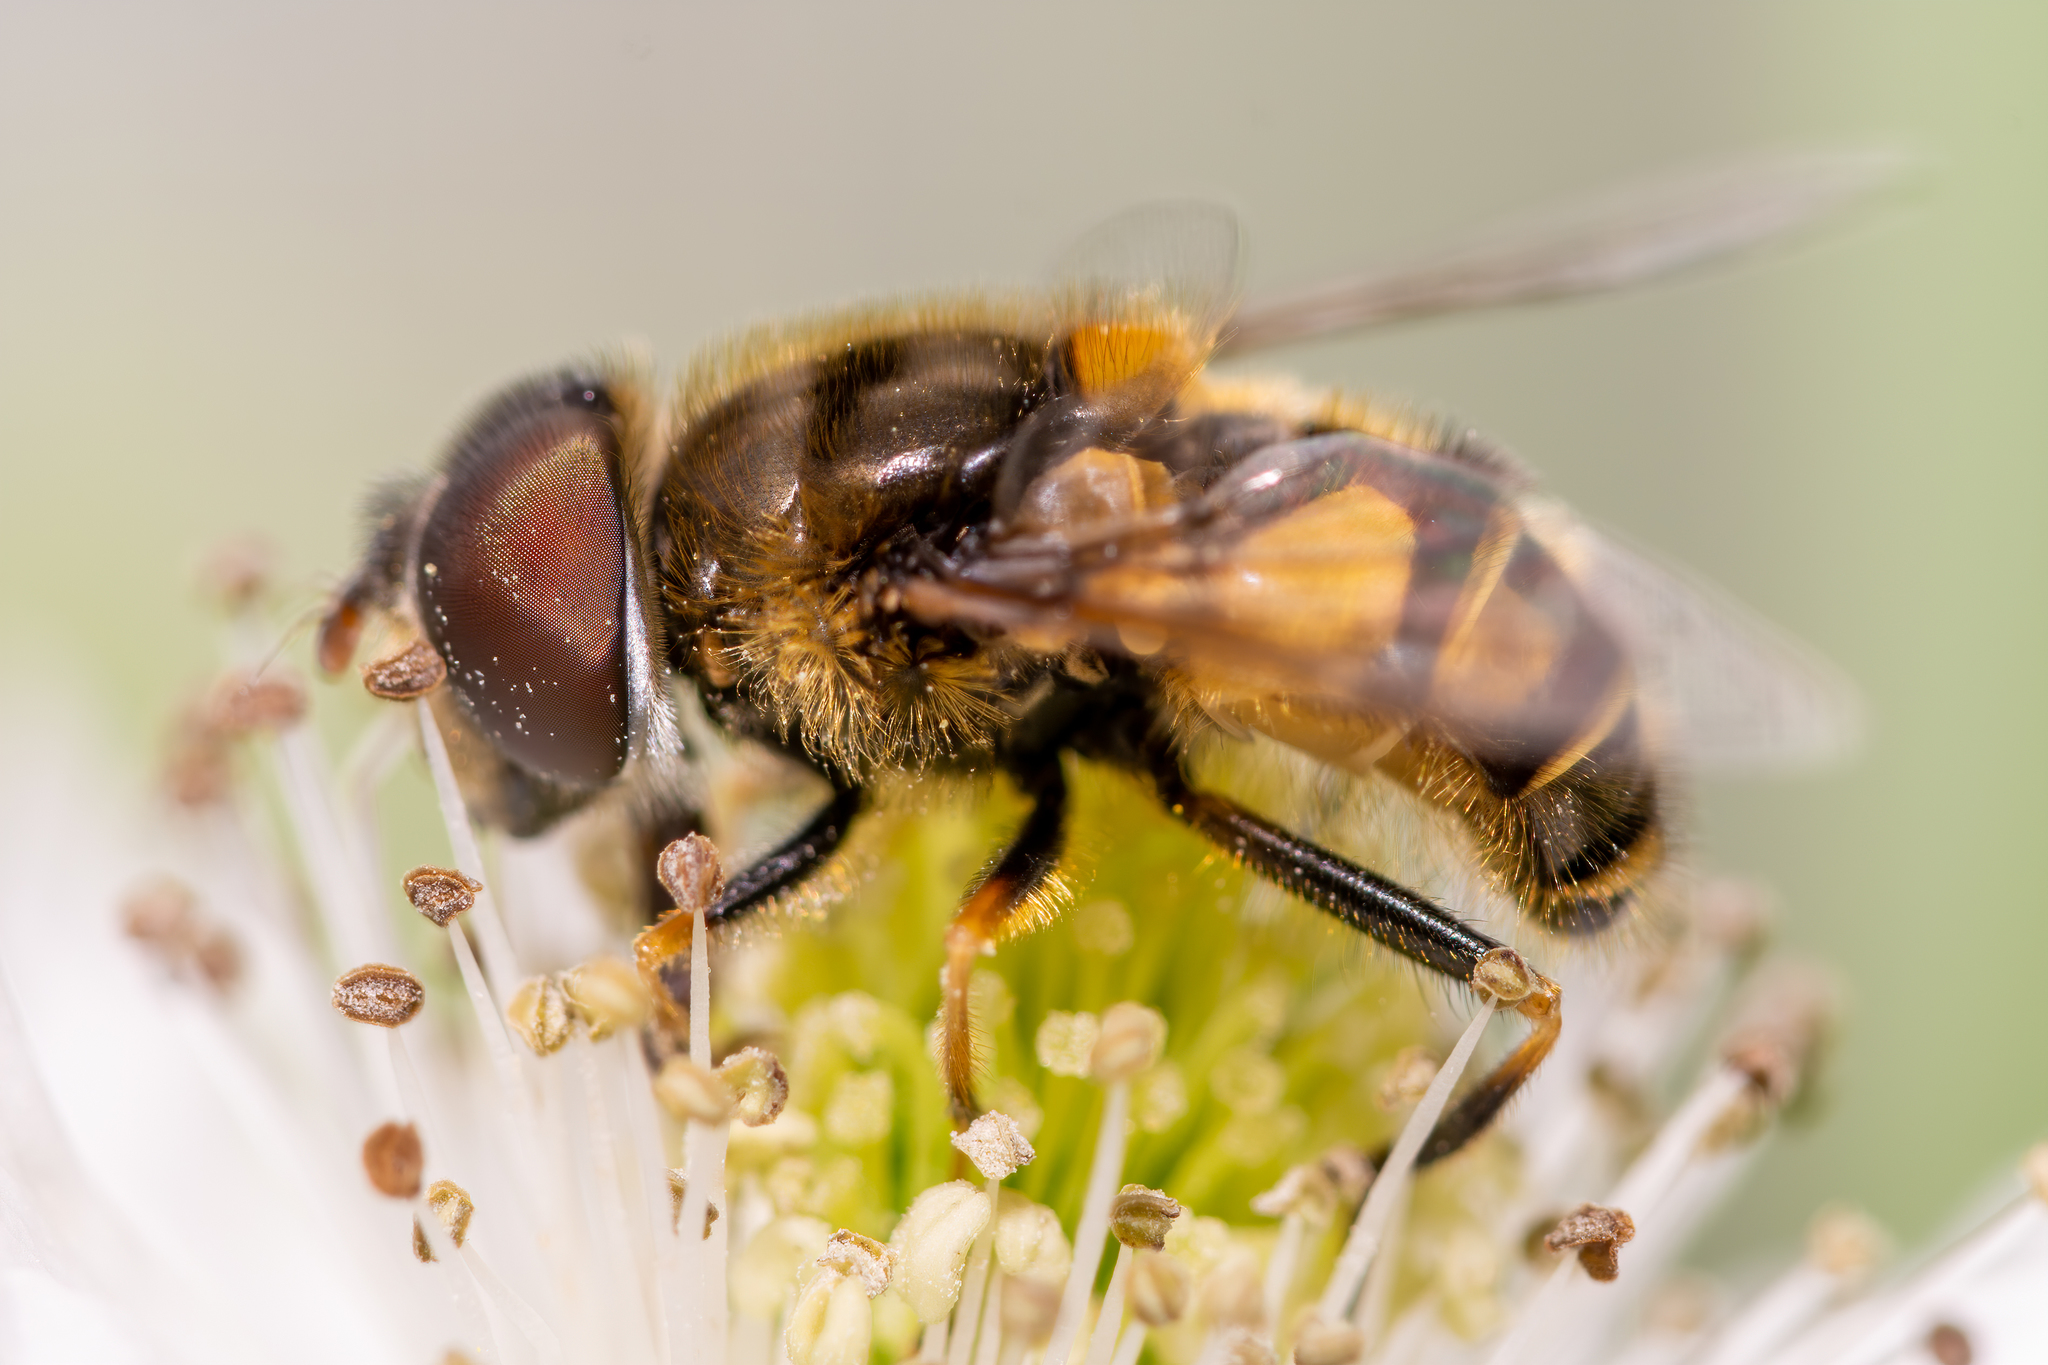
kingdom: Animalia
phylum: Arthropoda
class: Insecta
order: Diptera
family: Syrphidae
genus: Eristalis
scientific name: Eristalis tenax
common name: Drone fly
